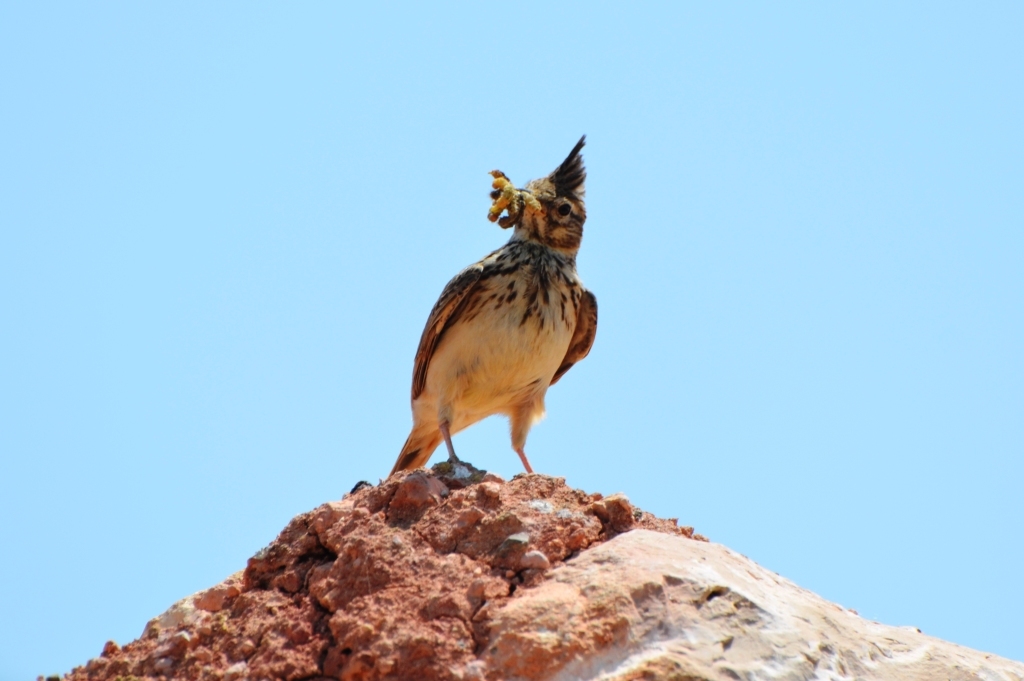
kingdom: Animalia
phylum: Chordata
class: Aves
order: Passeriformes
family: Alaudidae
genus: Galerida
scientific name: Galerida theklae
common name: Thekla lark
